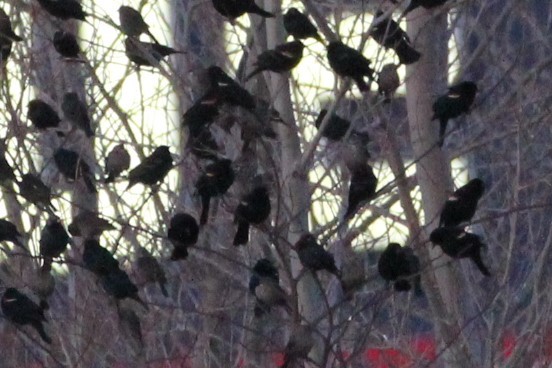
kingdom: Animalia
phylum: Chordata
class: Aves
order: Passeriformes
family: Icteridae
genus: Molothrus
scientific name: Molothrus ater
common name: Brown-headed cowbird
